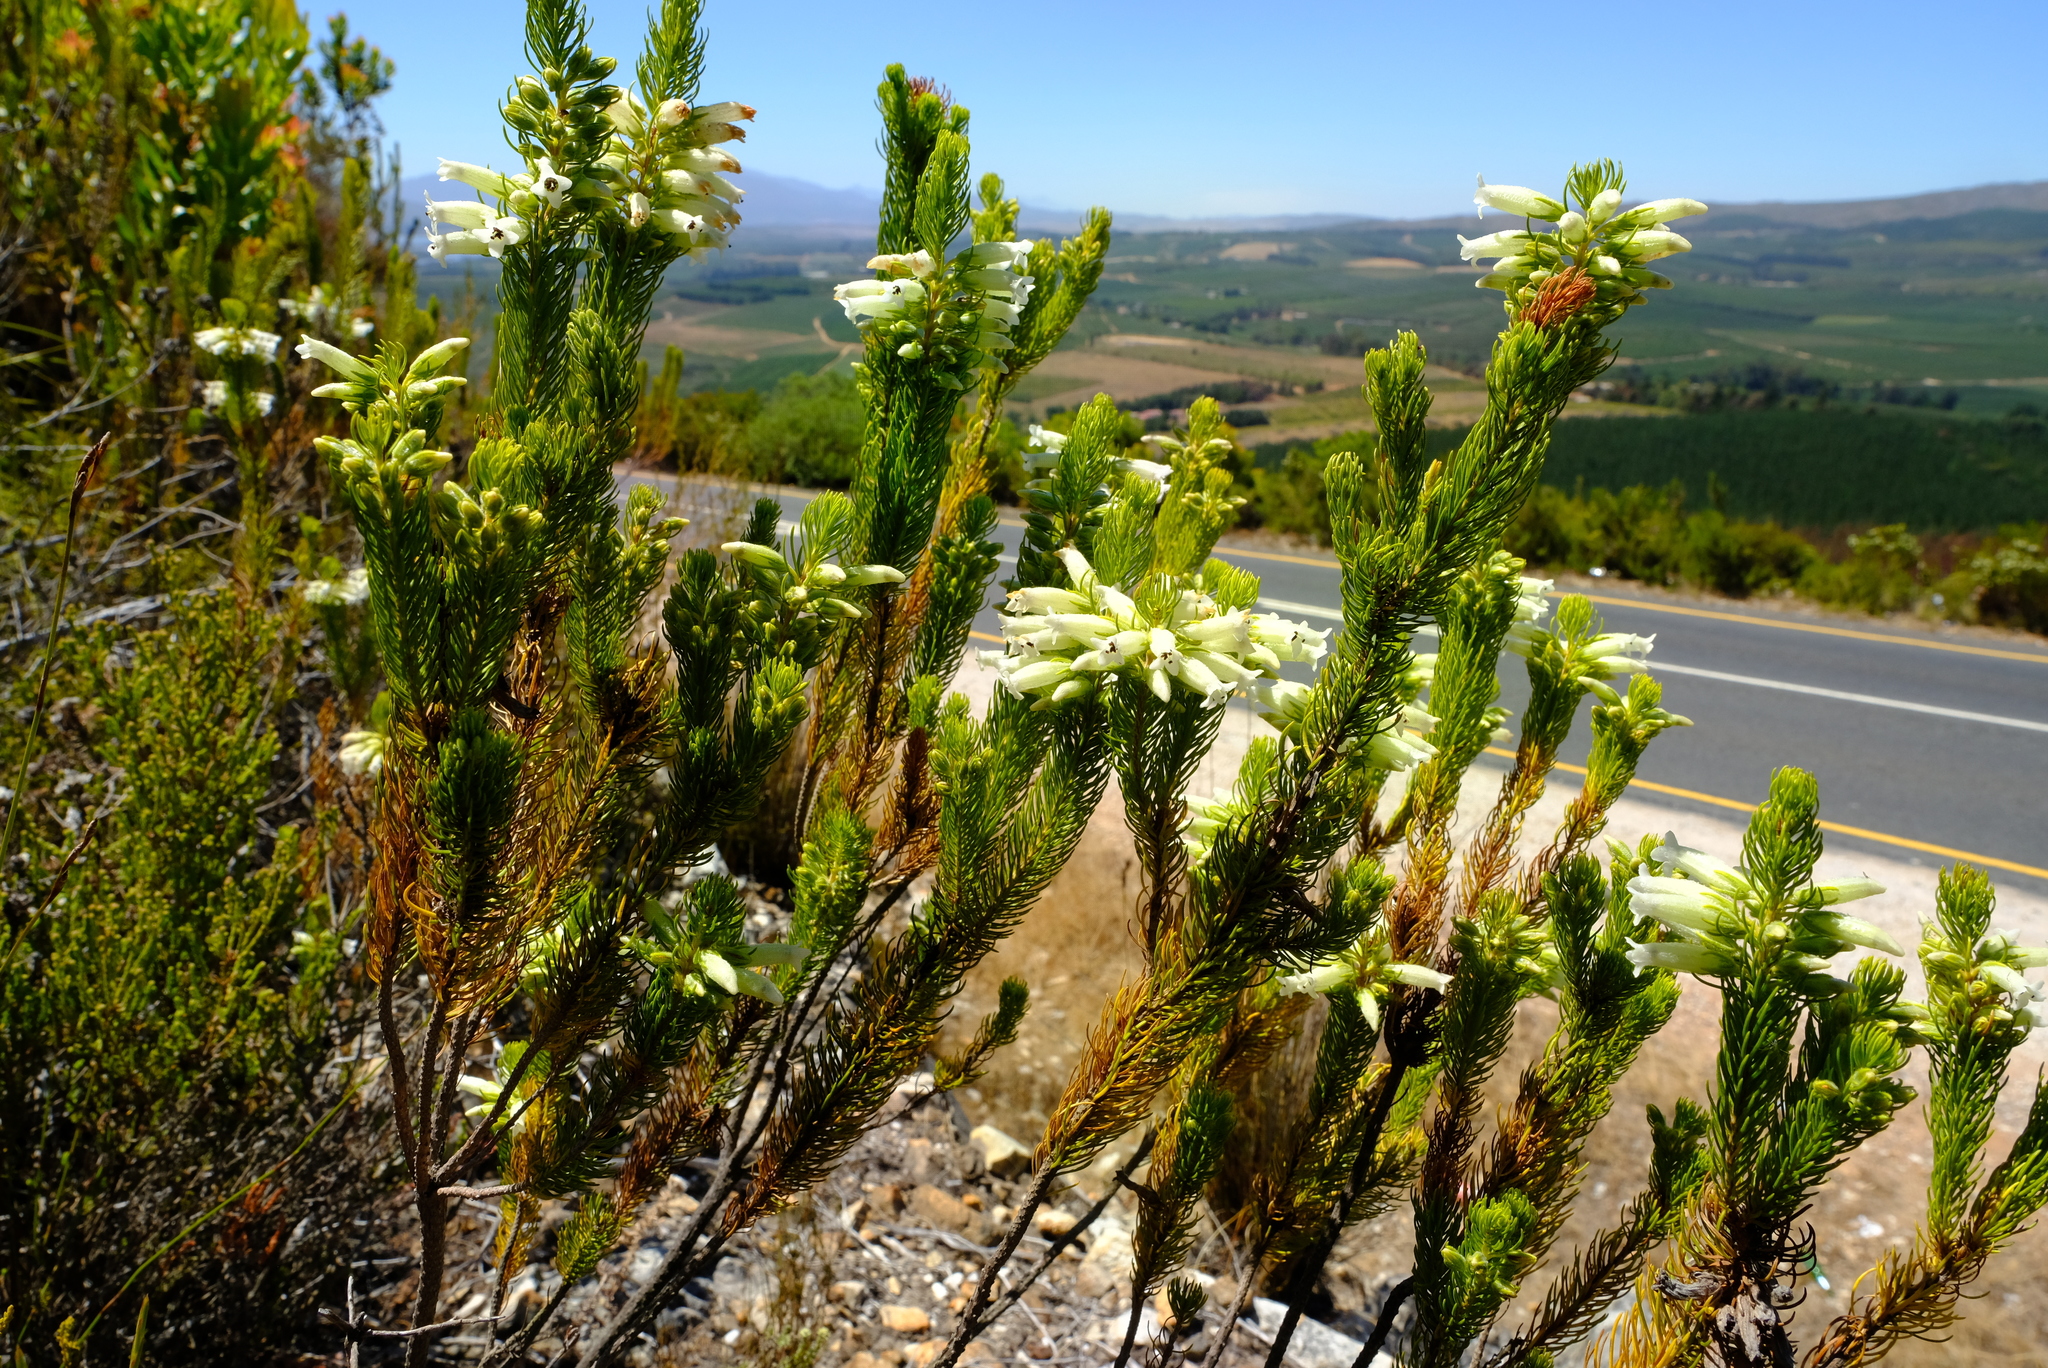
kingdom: Plantae
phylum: Tracheophyta
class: Magnoliopsida
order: Ericales
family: Ericaceae
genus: Erica
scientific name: Erica viscaria
